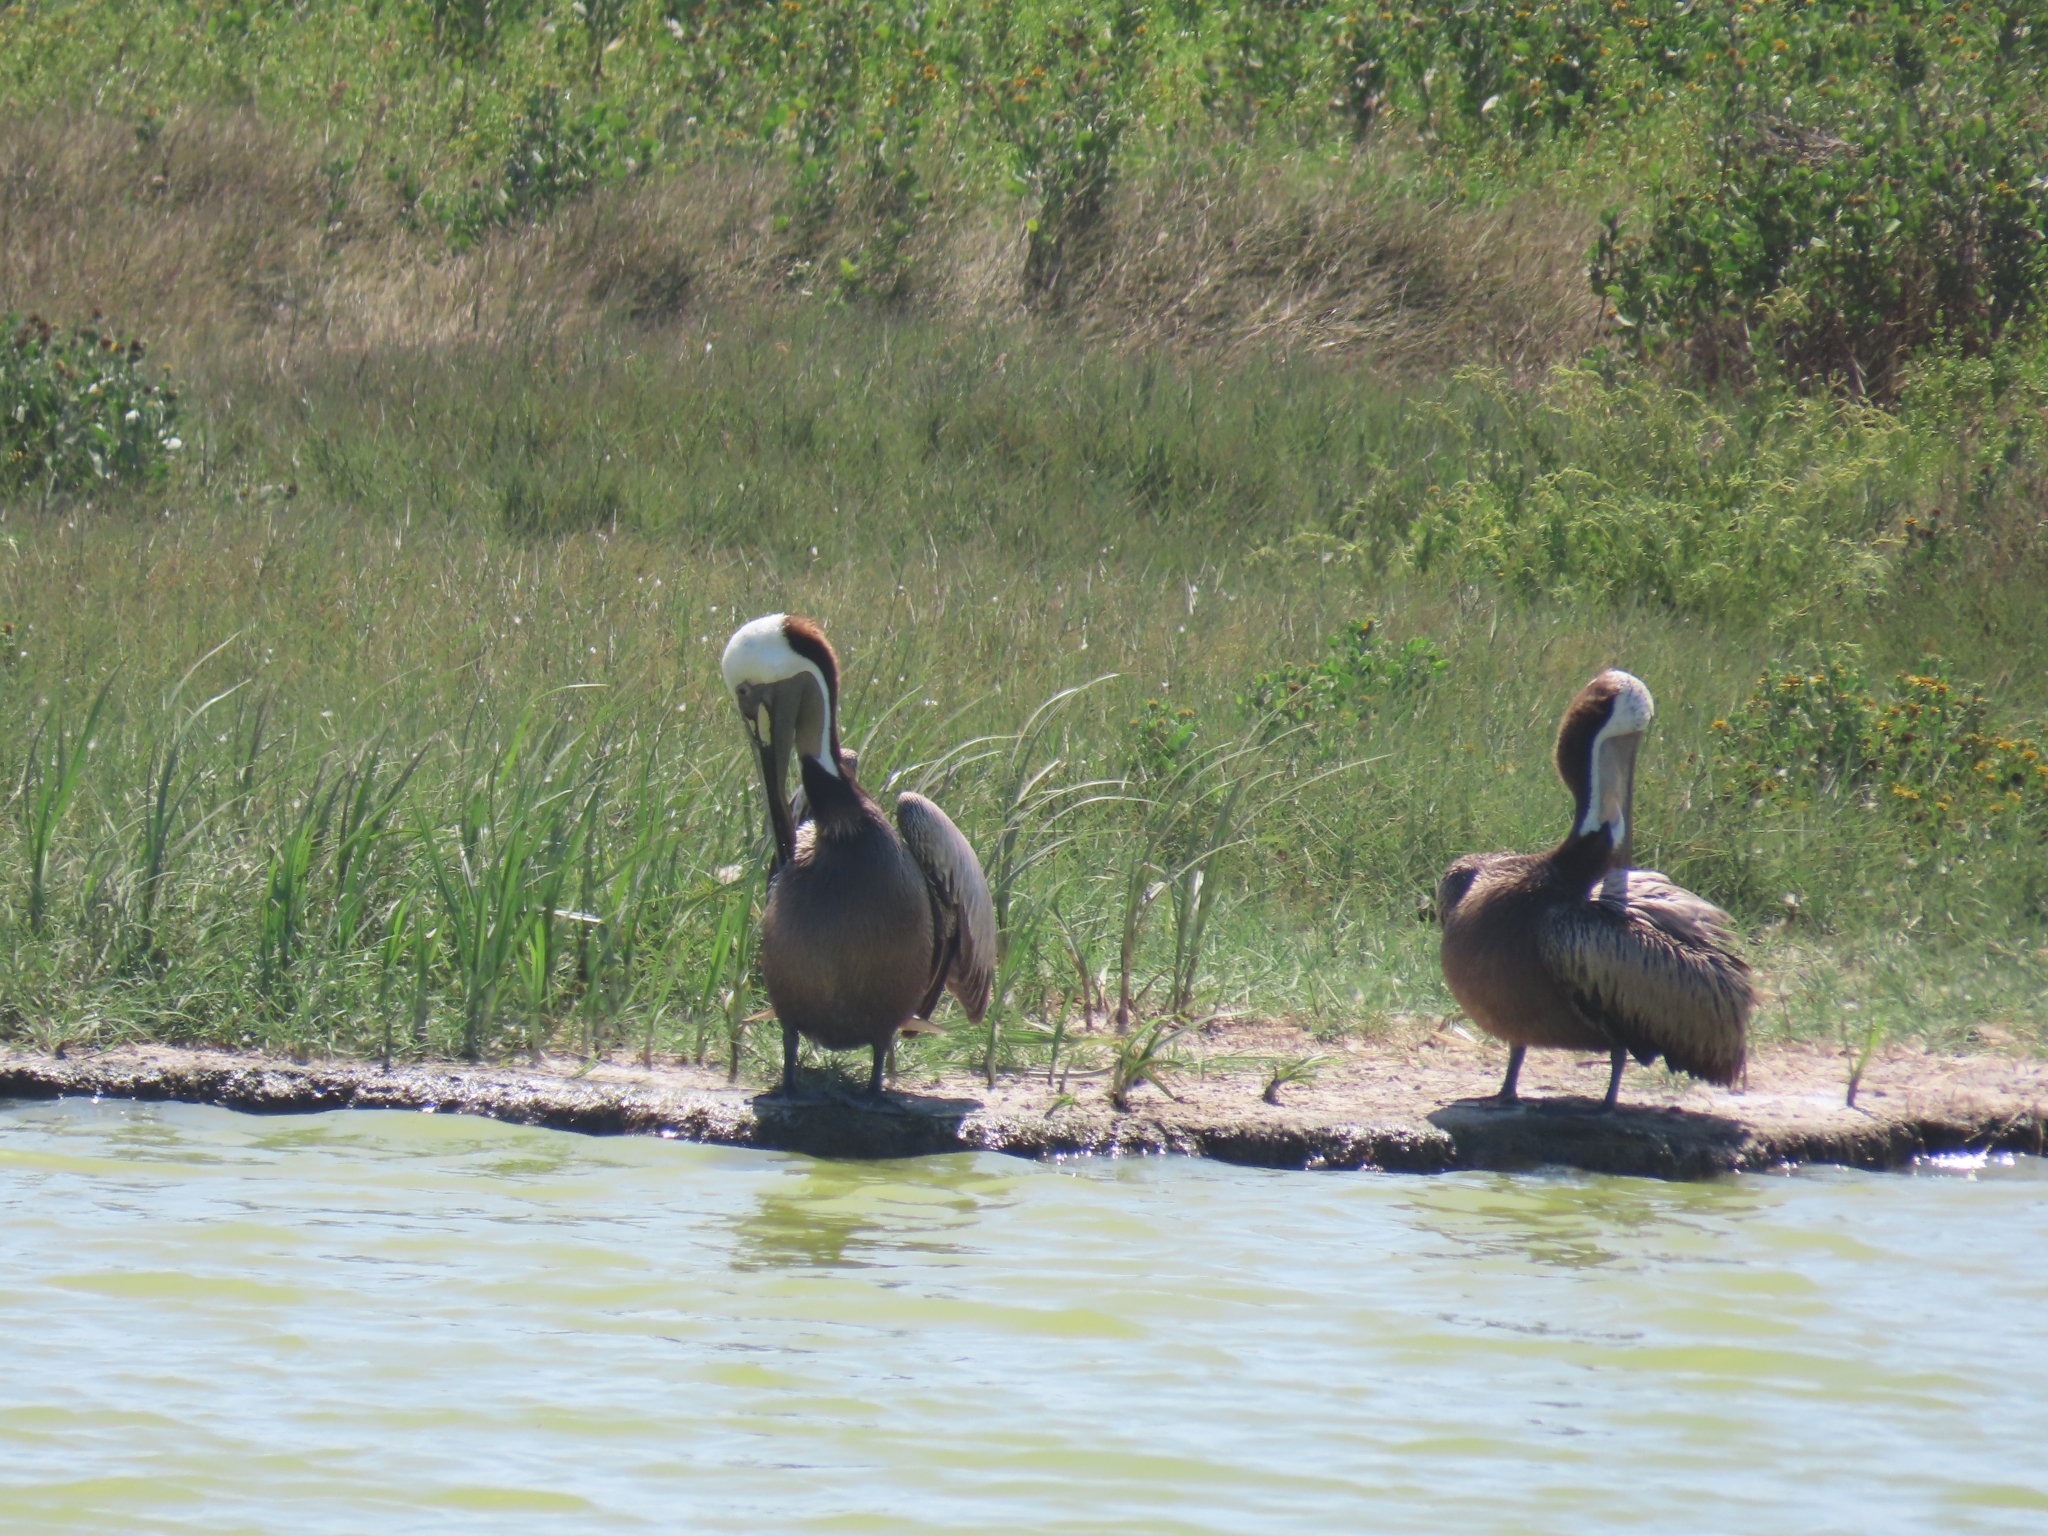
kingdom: Animalia
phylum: Chordata
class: Aves
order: Pelecaniformes
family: Pelecanidae
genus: Pelecanus
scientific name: Pelecanus occidentalis
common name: Brown pelican
